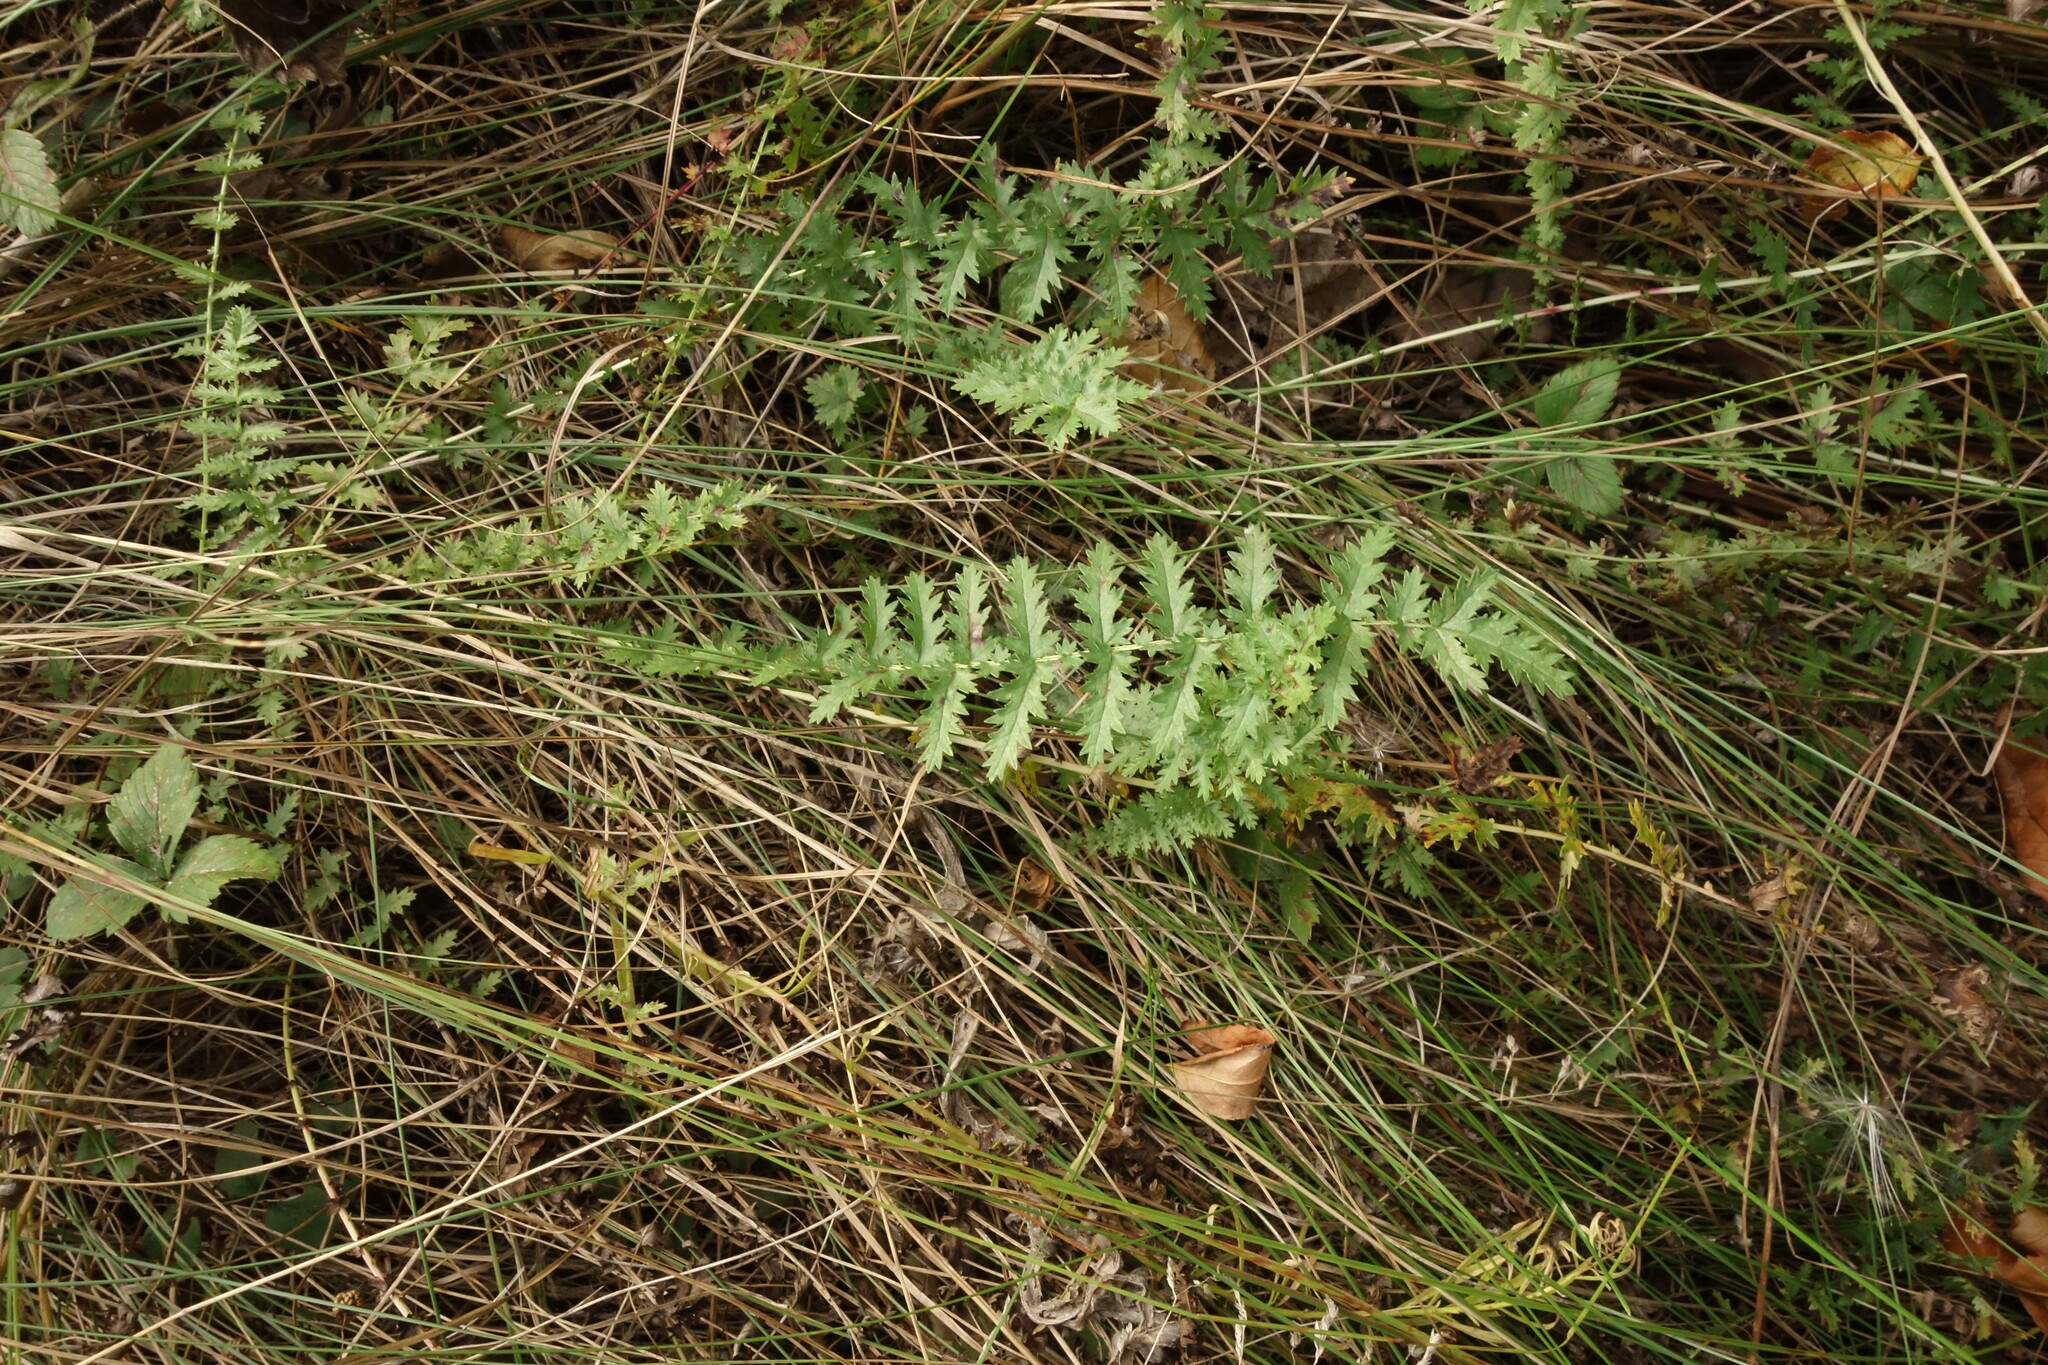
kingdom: Plantae
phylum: Tracheophyta
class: Magnoliopsida
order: Rosales
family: Rosaceae
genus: Filipendula
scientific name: Filipendula vulgaris
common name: Dropwort
